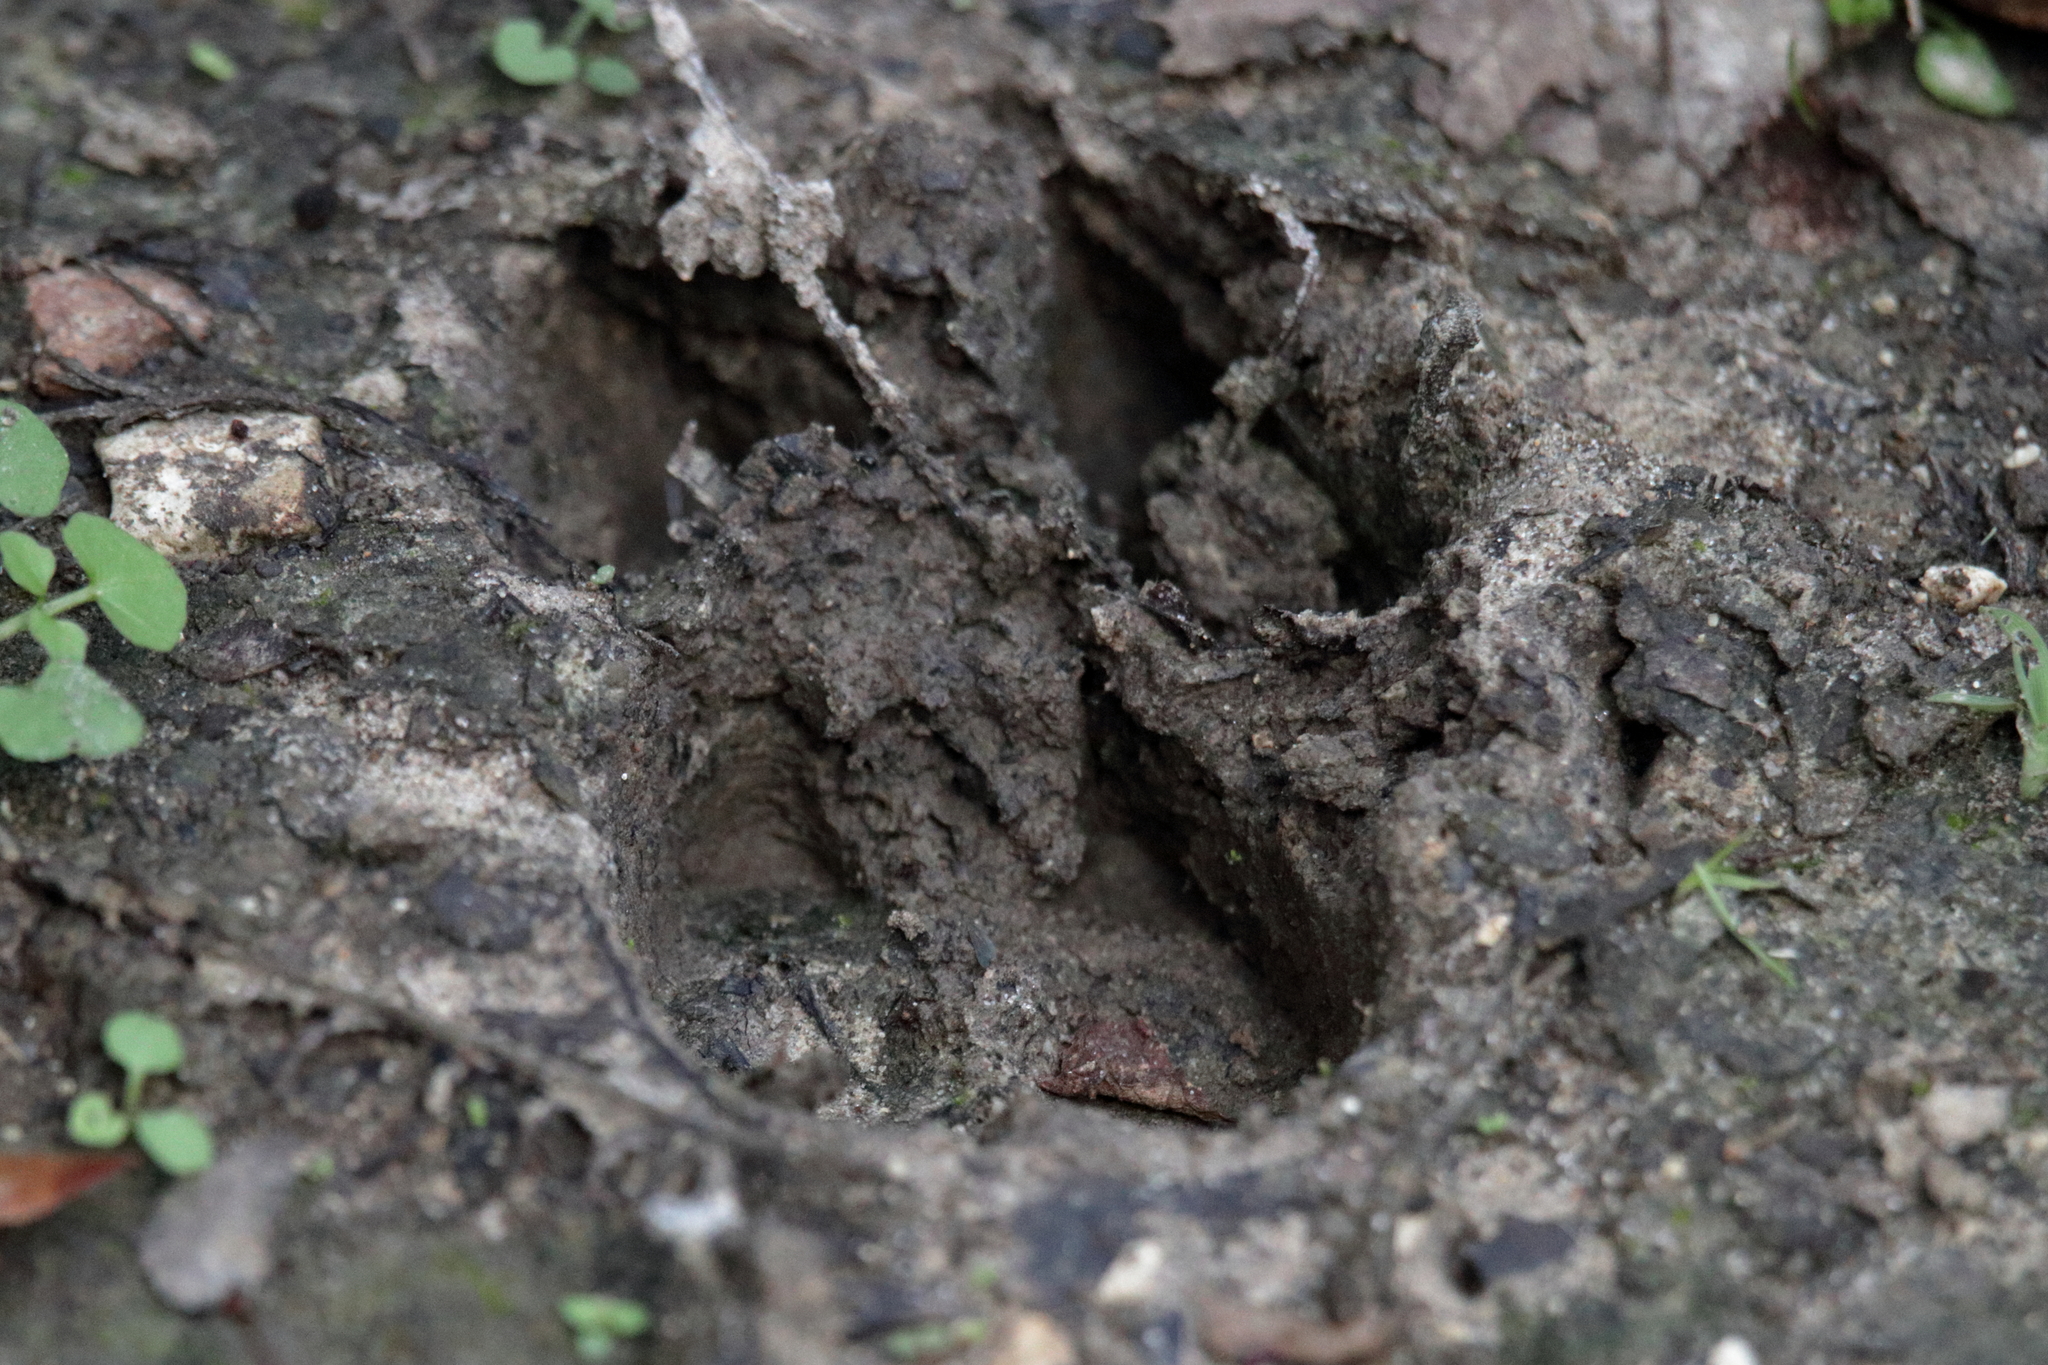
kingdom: Animalia
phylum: Chordata
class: Mammalia
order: Artiodactyla
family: Suidae
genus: Sus
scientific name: Sus scrofa
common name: Wild boar
